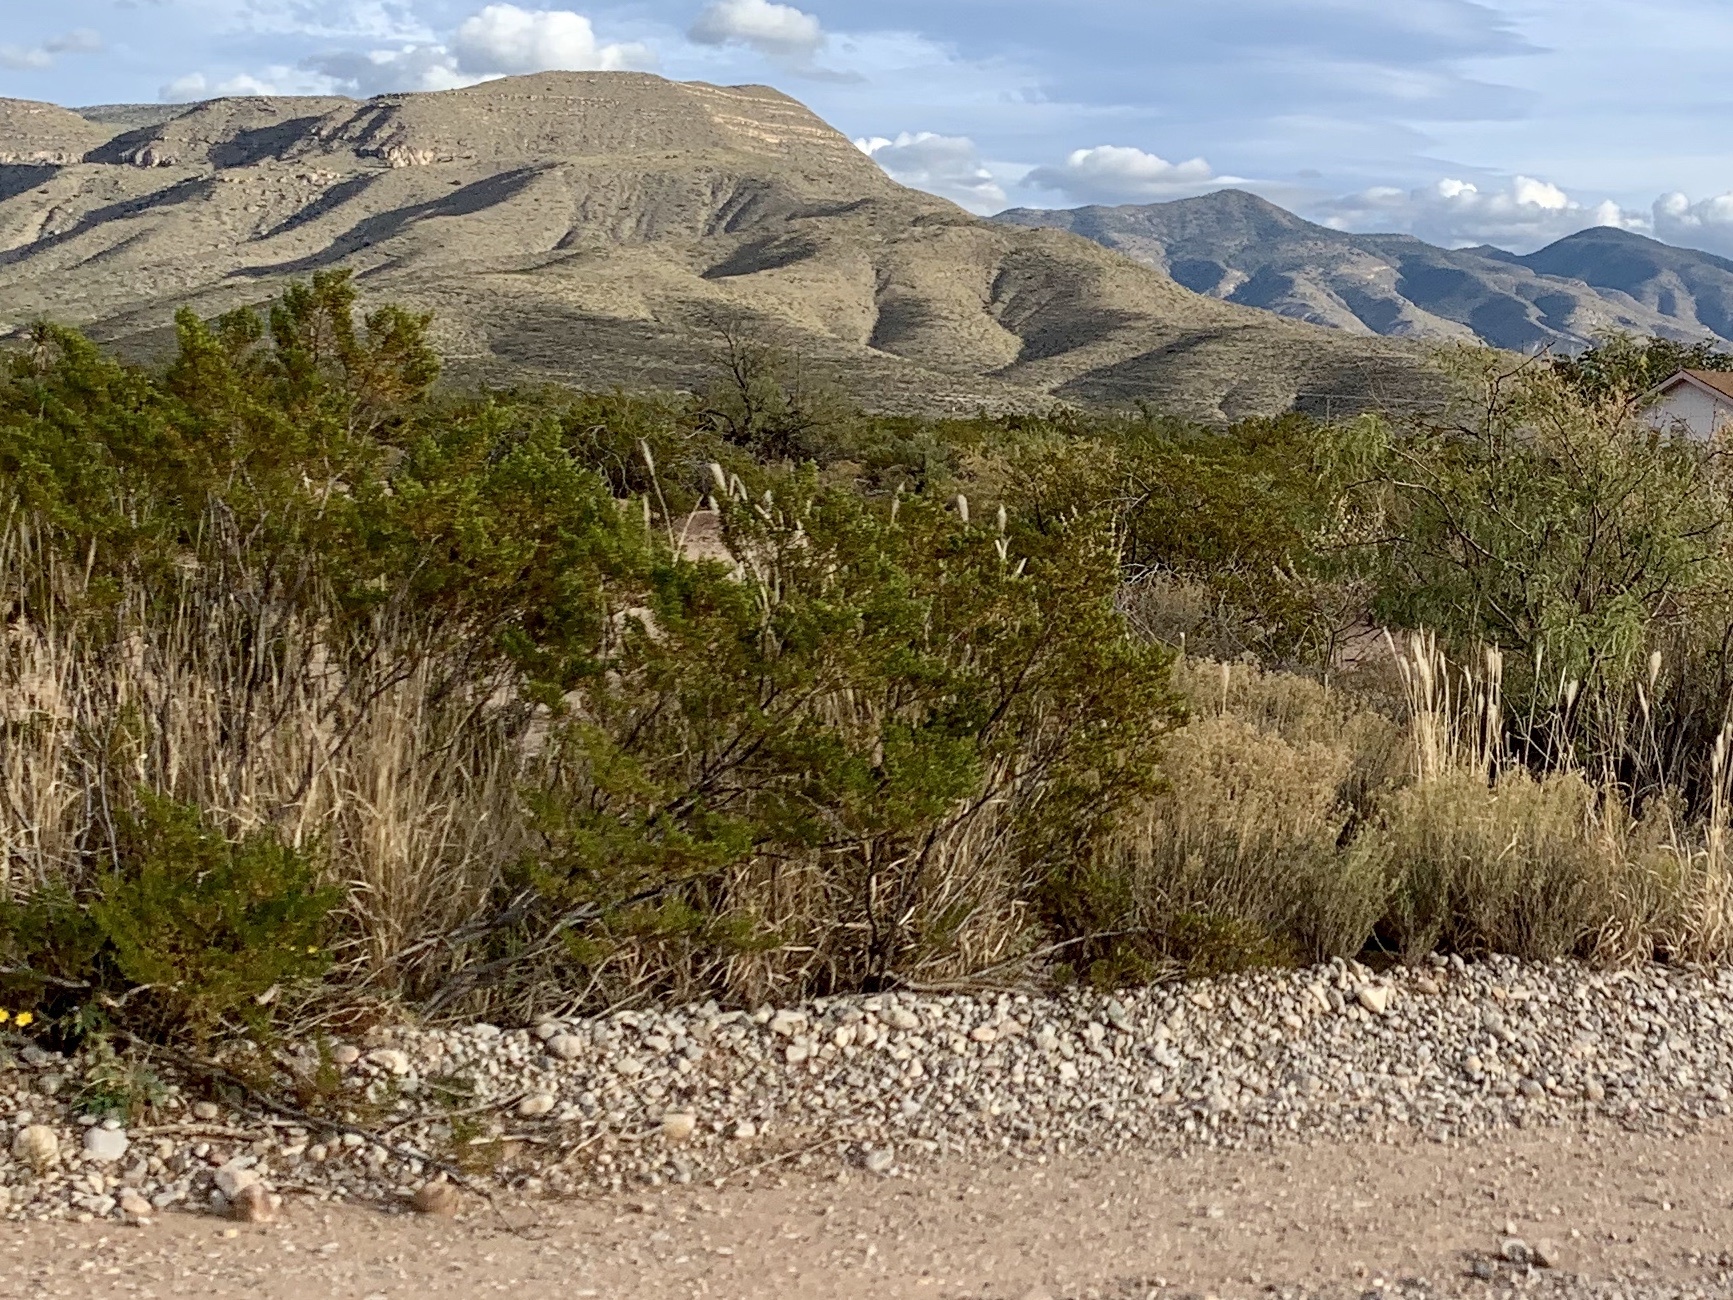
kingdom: Plantae
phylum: Tracheophyta
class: Magnoliopsida
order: Zygophyllales
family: Zygophyllaceae
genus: Larrea
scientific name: Larrea tridentata
